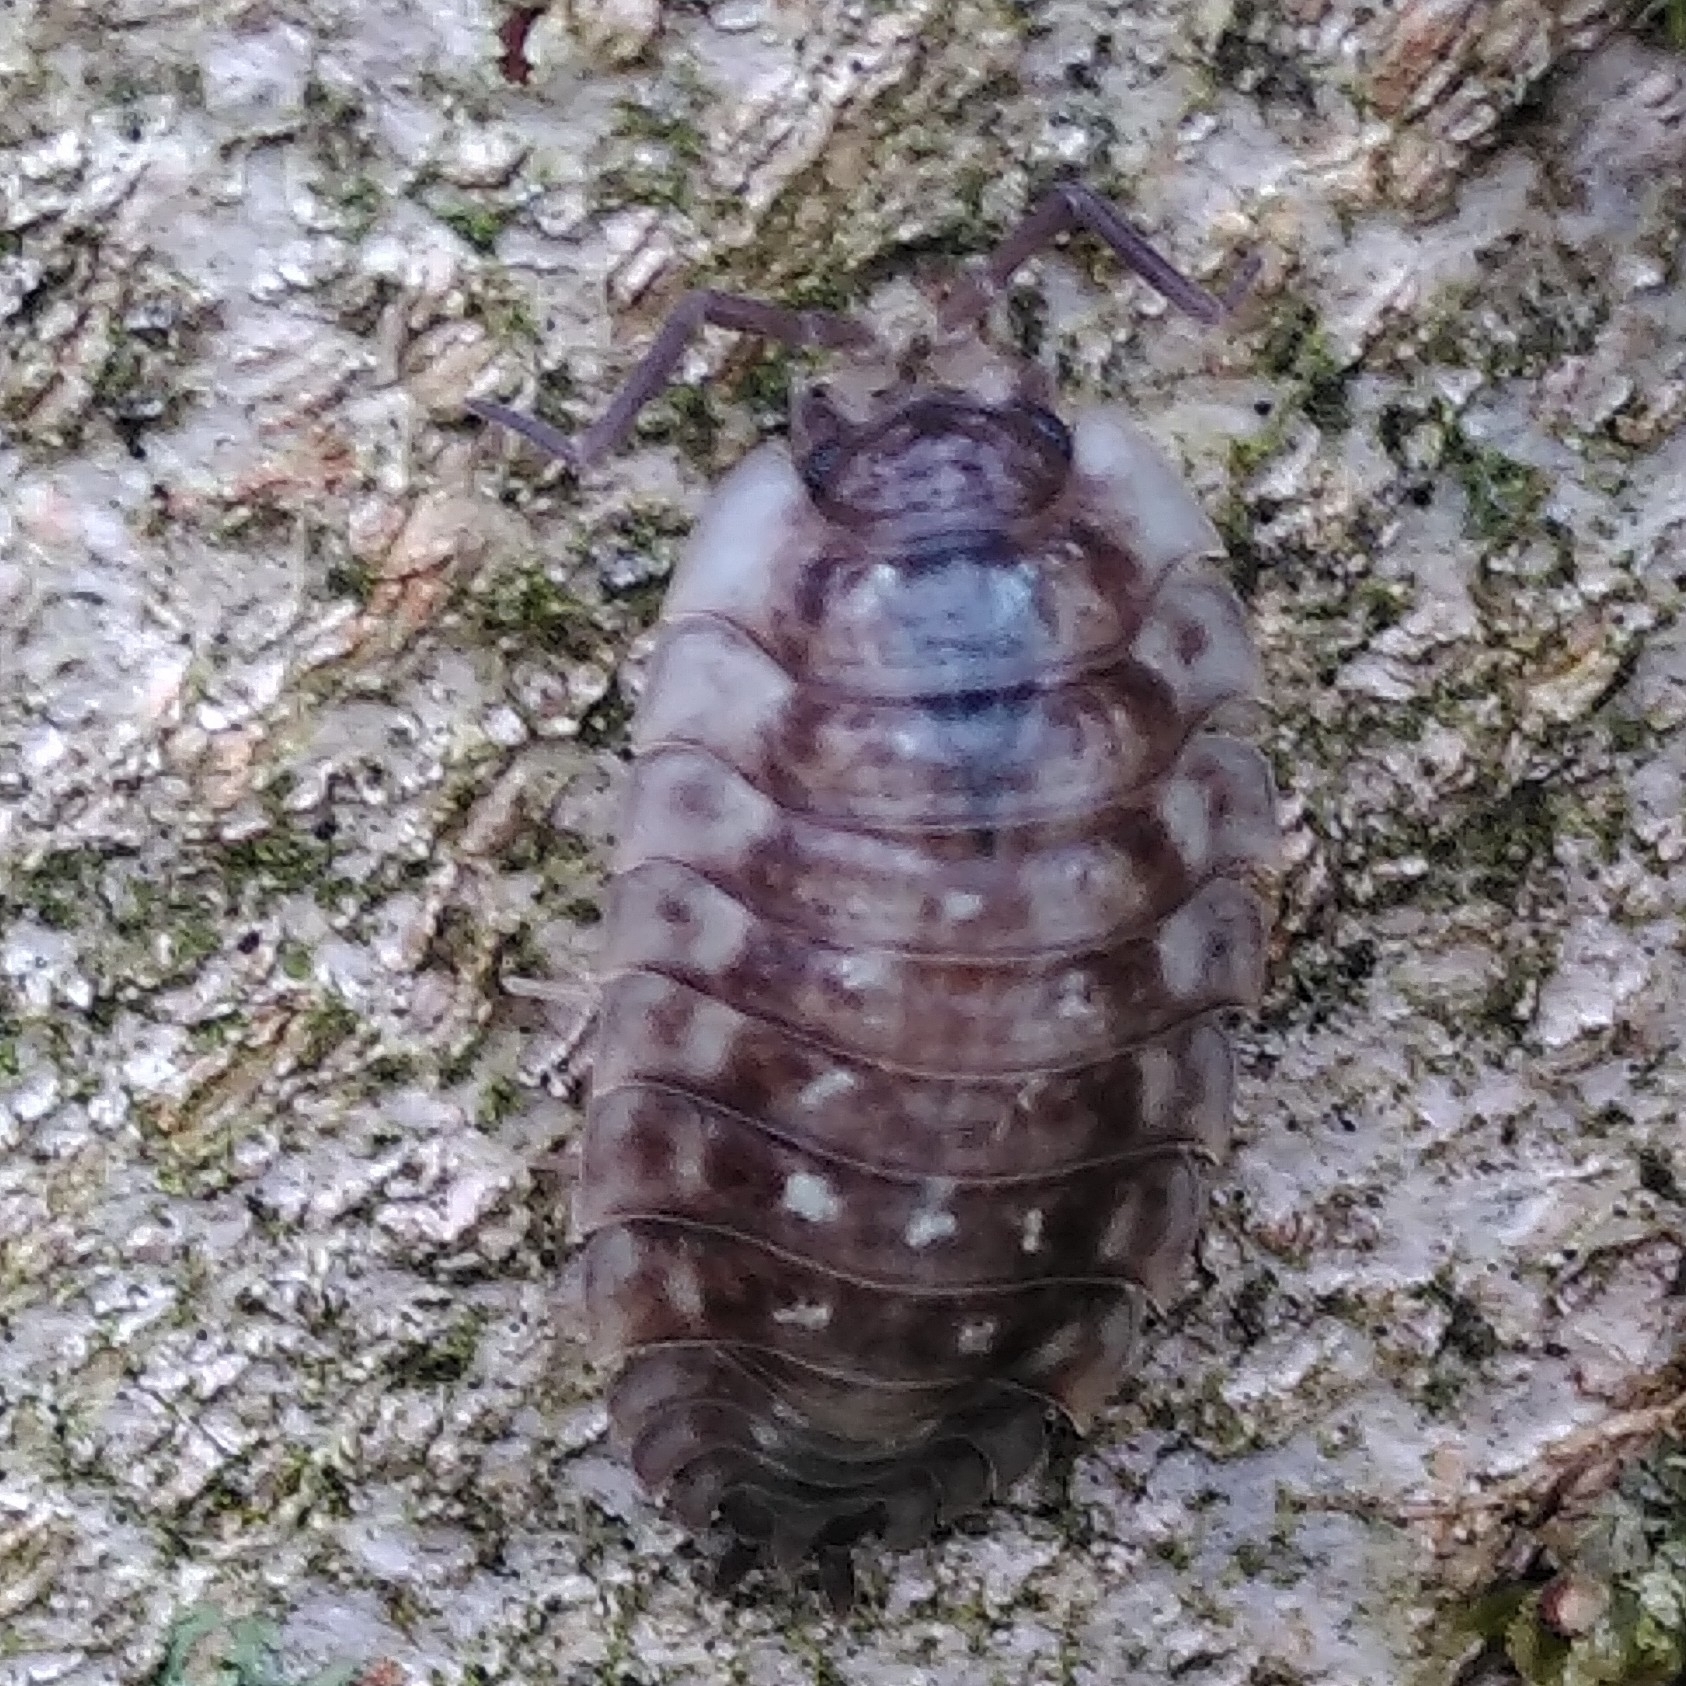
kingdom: Animalia
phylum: Arthropoda
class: Malacostraca
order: Isopoda
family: Oniscidae
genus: Oniscus
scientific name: Oniscus asellus
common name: Common shiny woodlouse
